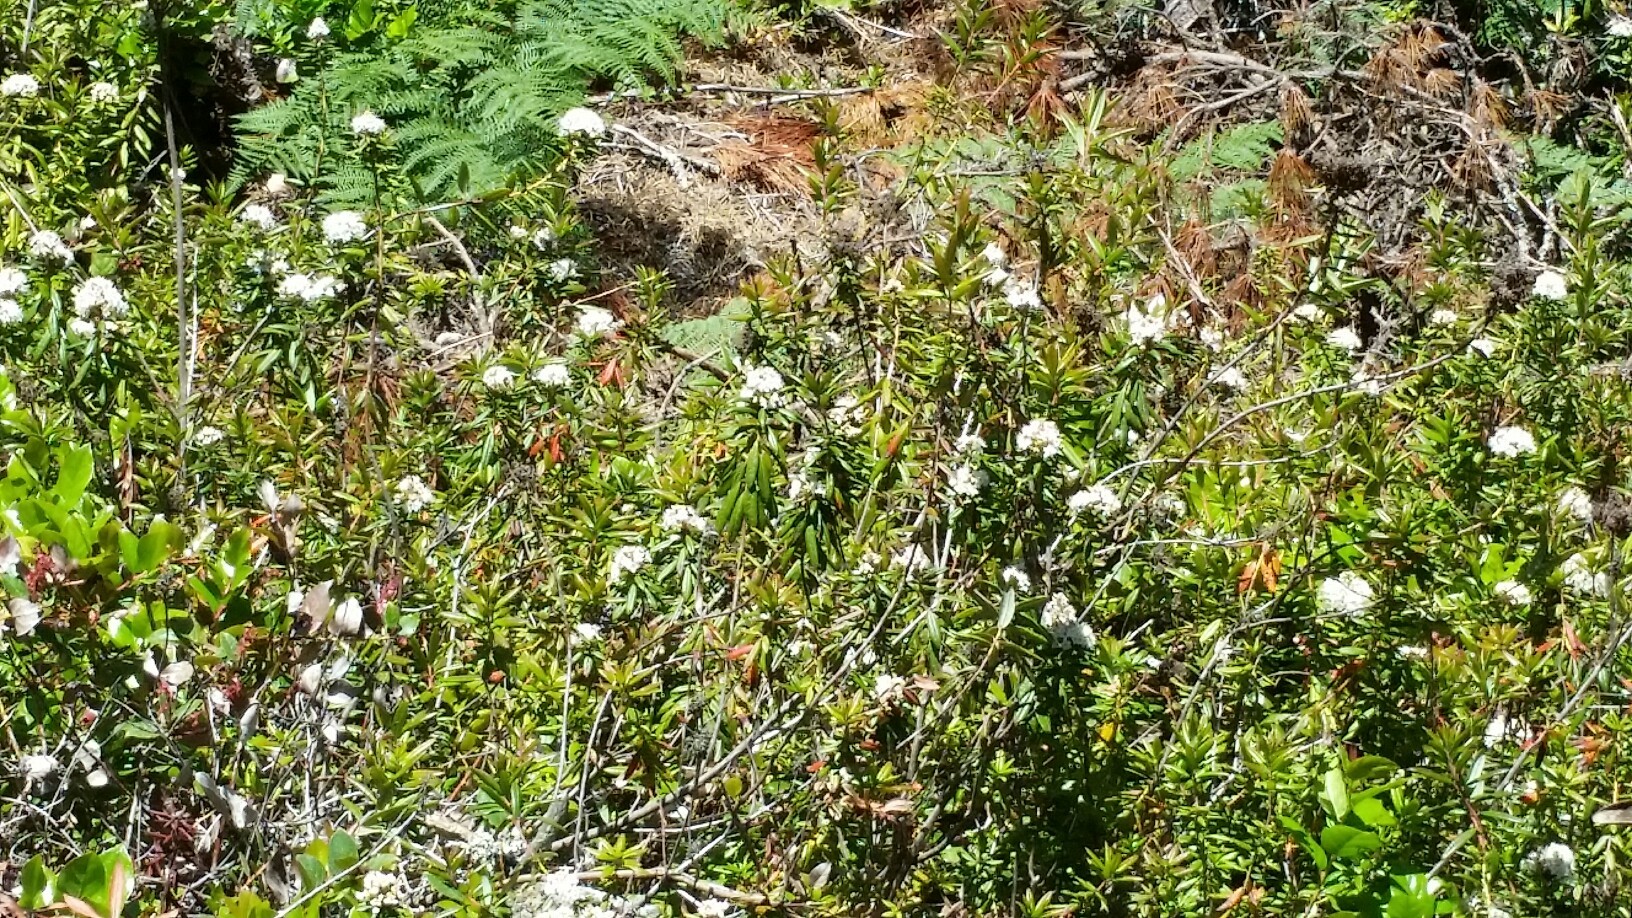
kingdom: Plantae
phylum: Tracheophyta
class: Magnoliopsida
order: Ericales
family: Ericaceae
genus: Rhododendron
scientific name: Rhododendron columbianum
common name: Western labrador tea
